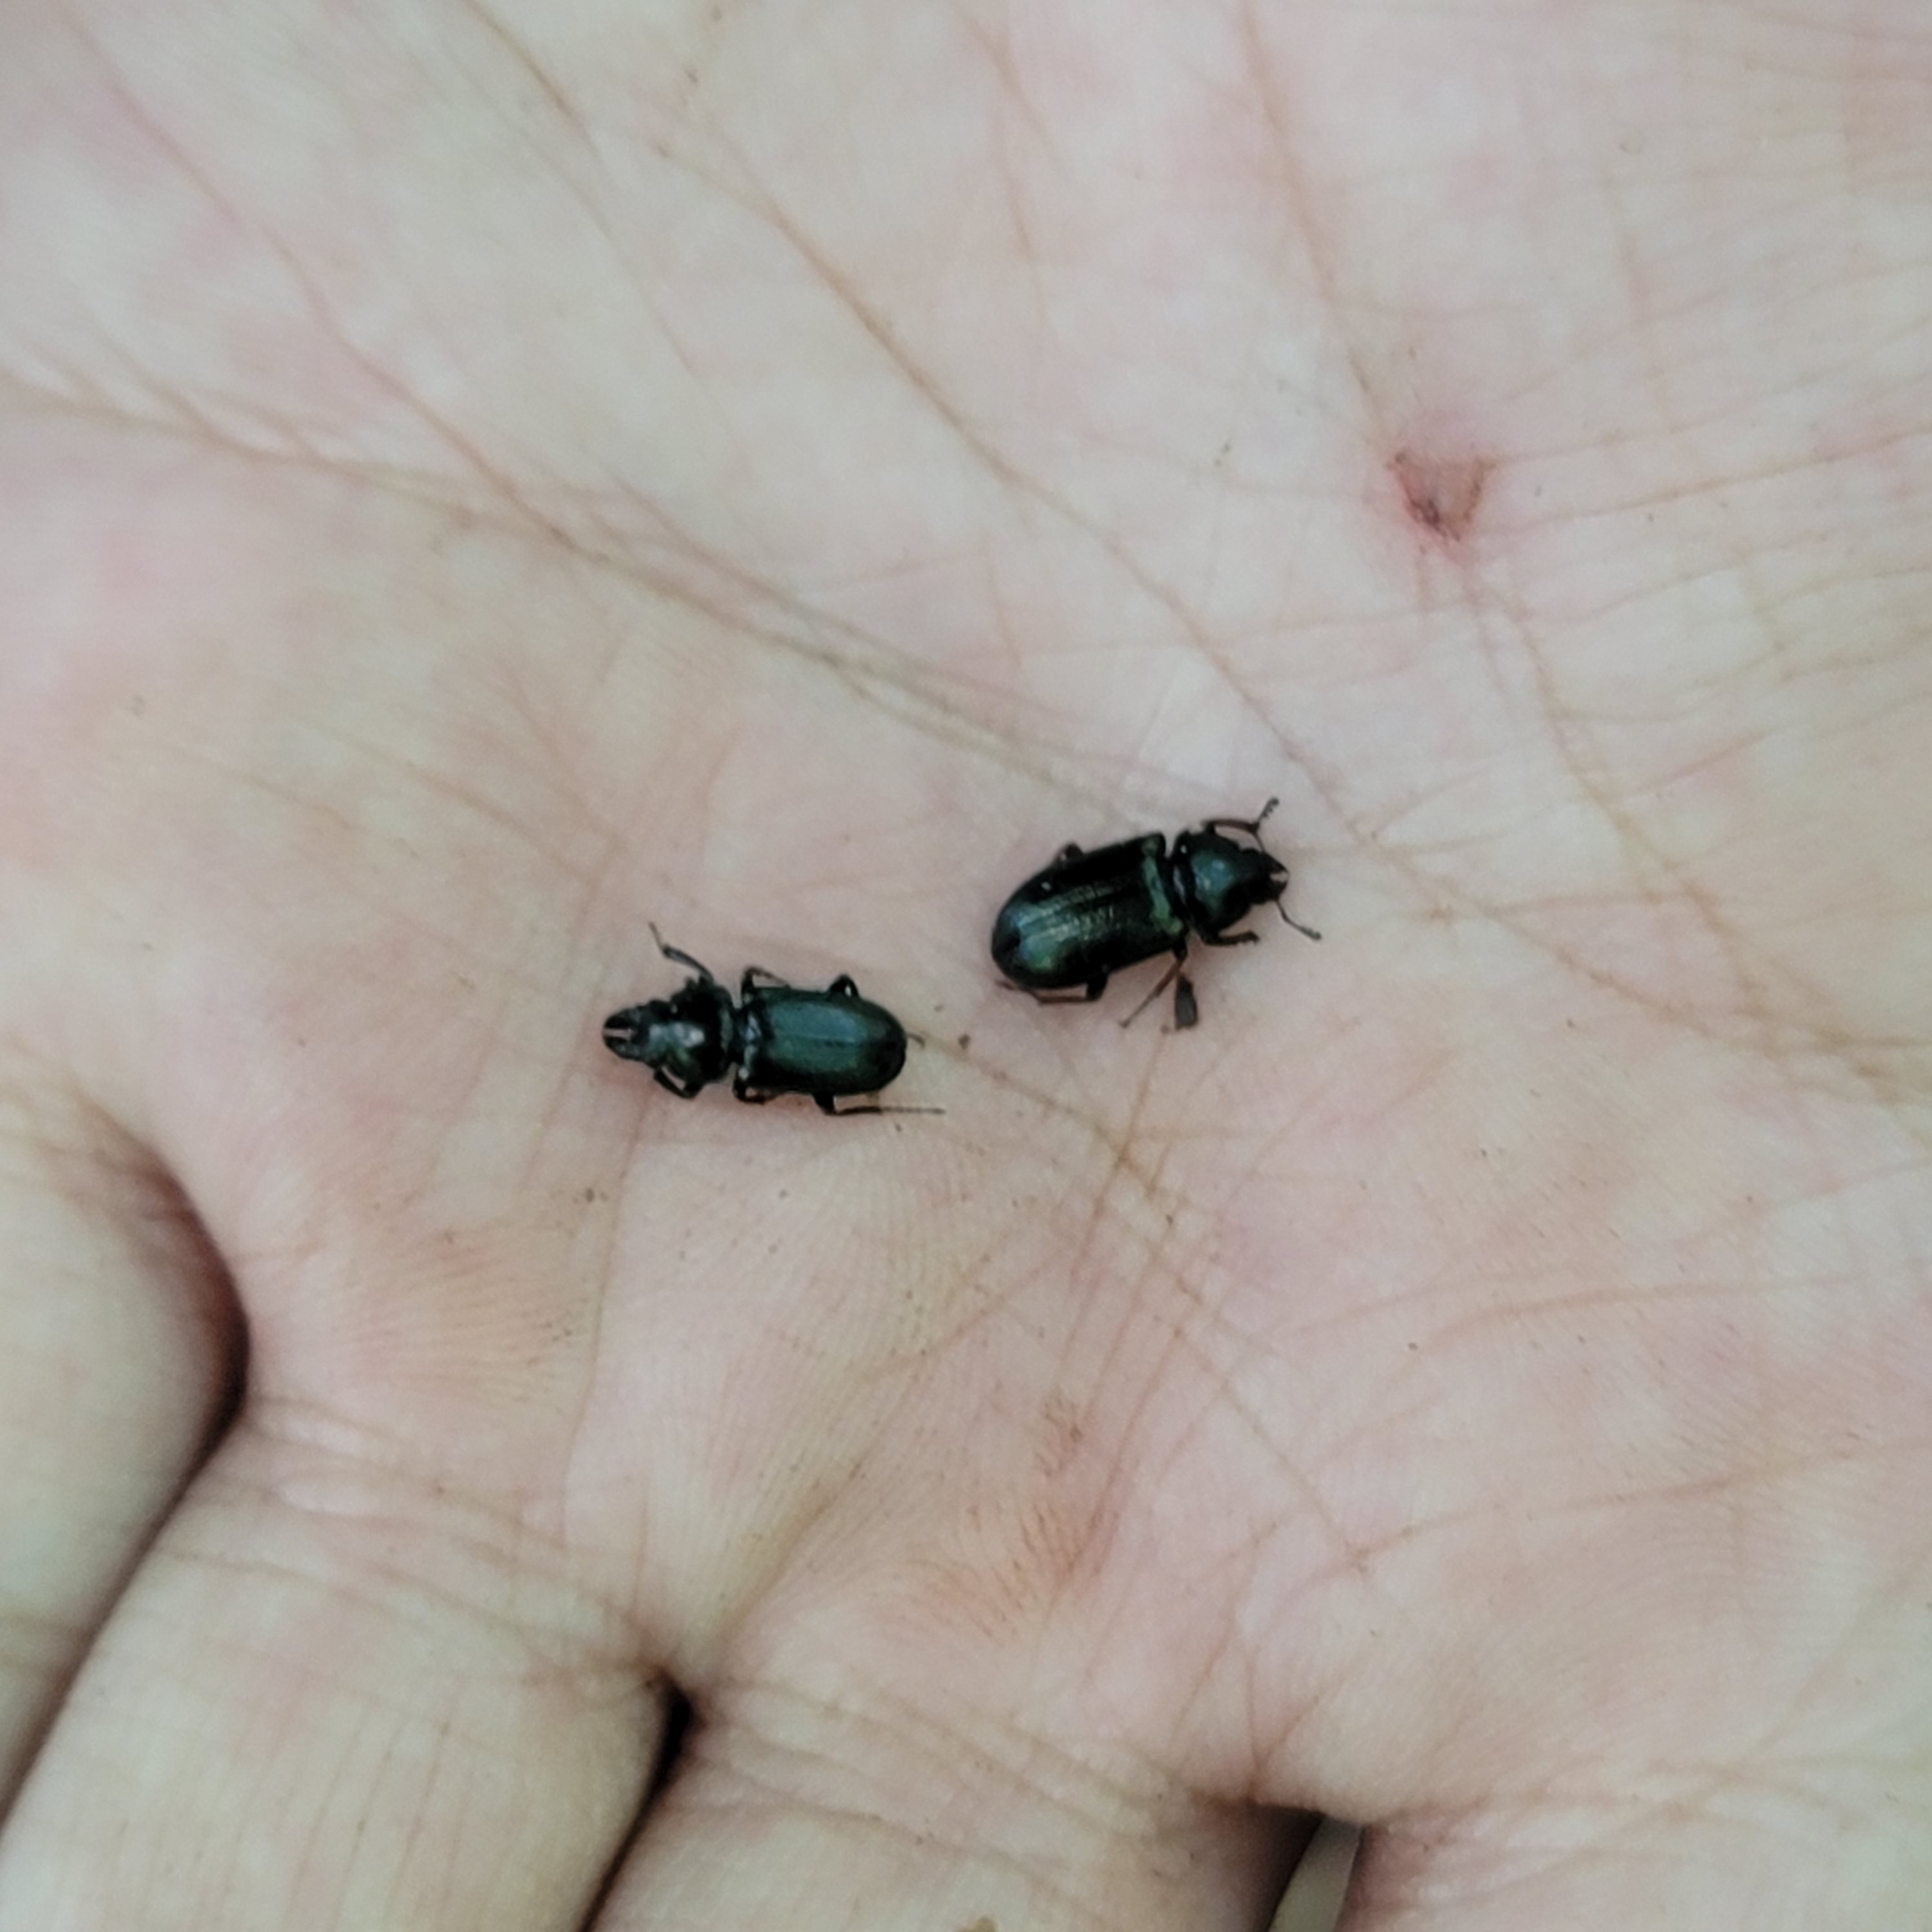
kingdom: Animalia
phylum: Arthropoda
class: Insecta
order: Coleoptera
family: Lucanidae
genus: Platycerus
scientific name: Platycerus quercus
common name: Oak stag beetle
